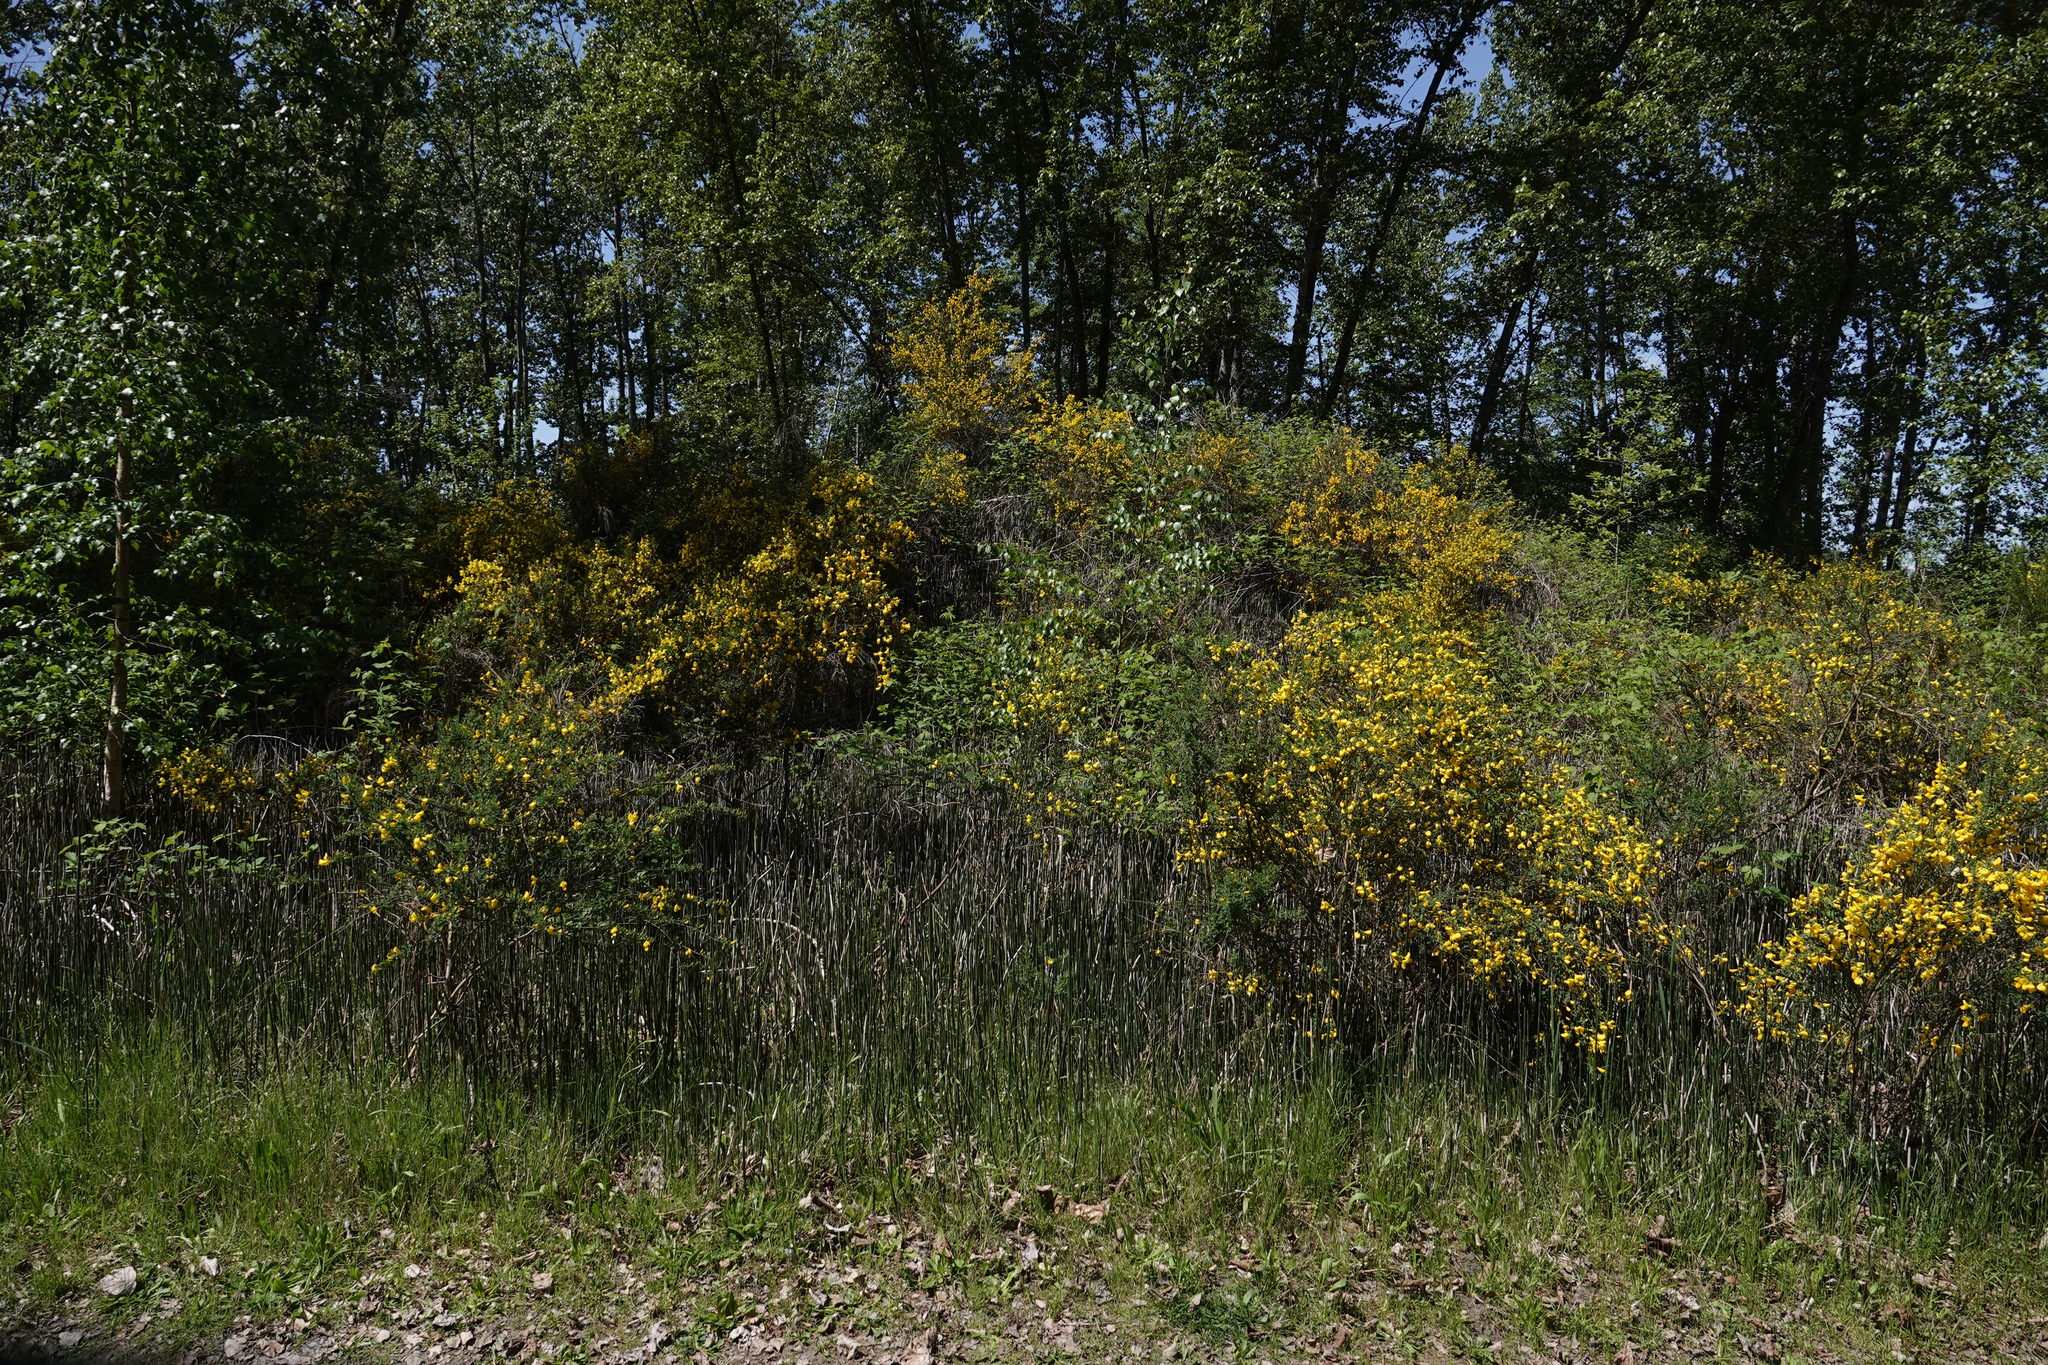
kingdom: Plantae
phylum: Tracheophyta
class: Magnoliopsida
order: Fabales
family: Fabaceae
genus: Cytisus
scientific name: Cytisus scoparius
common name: Scotch broom
